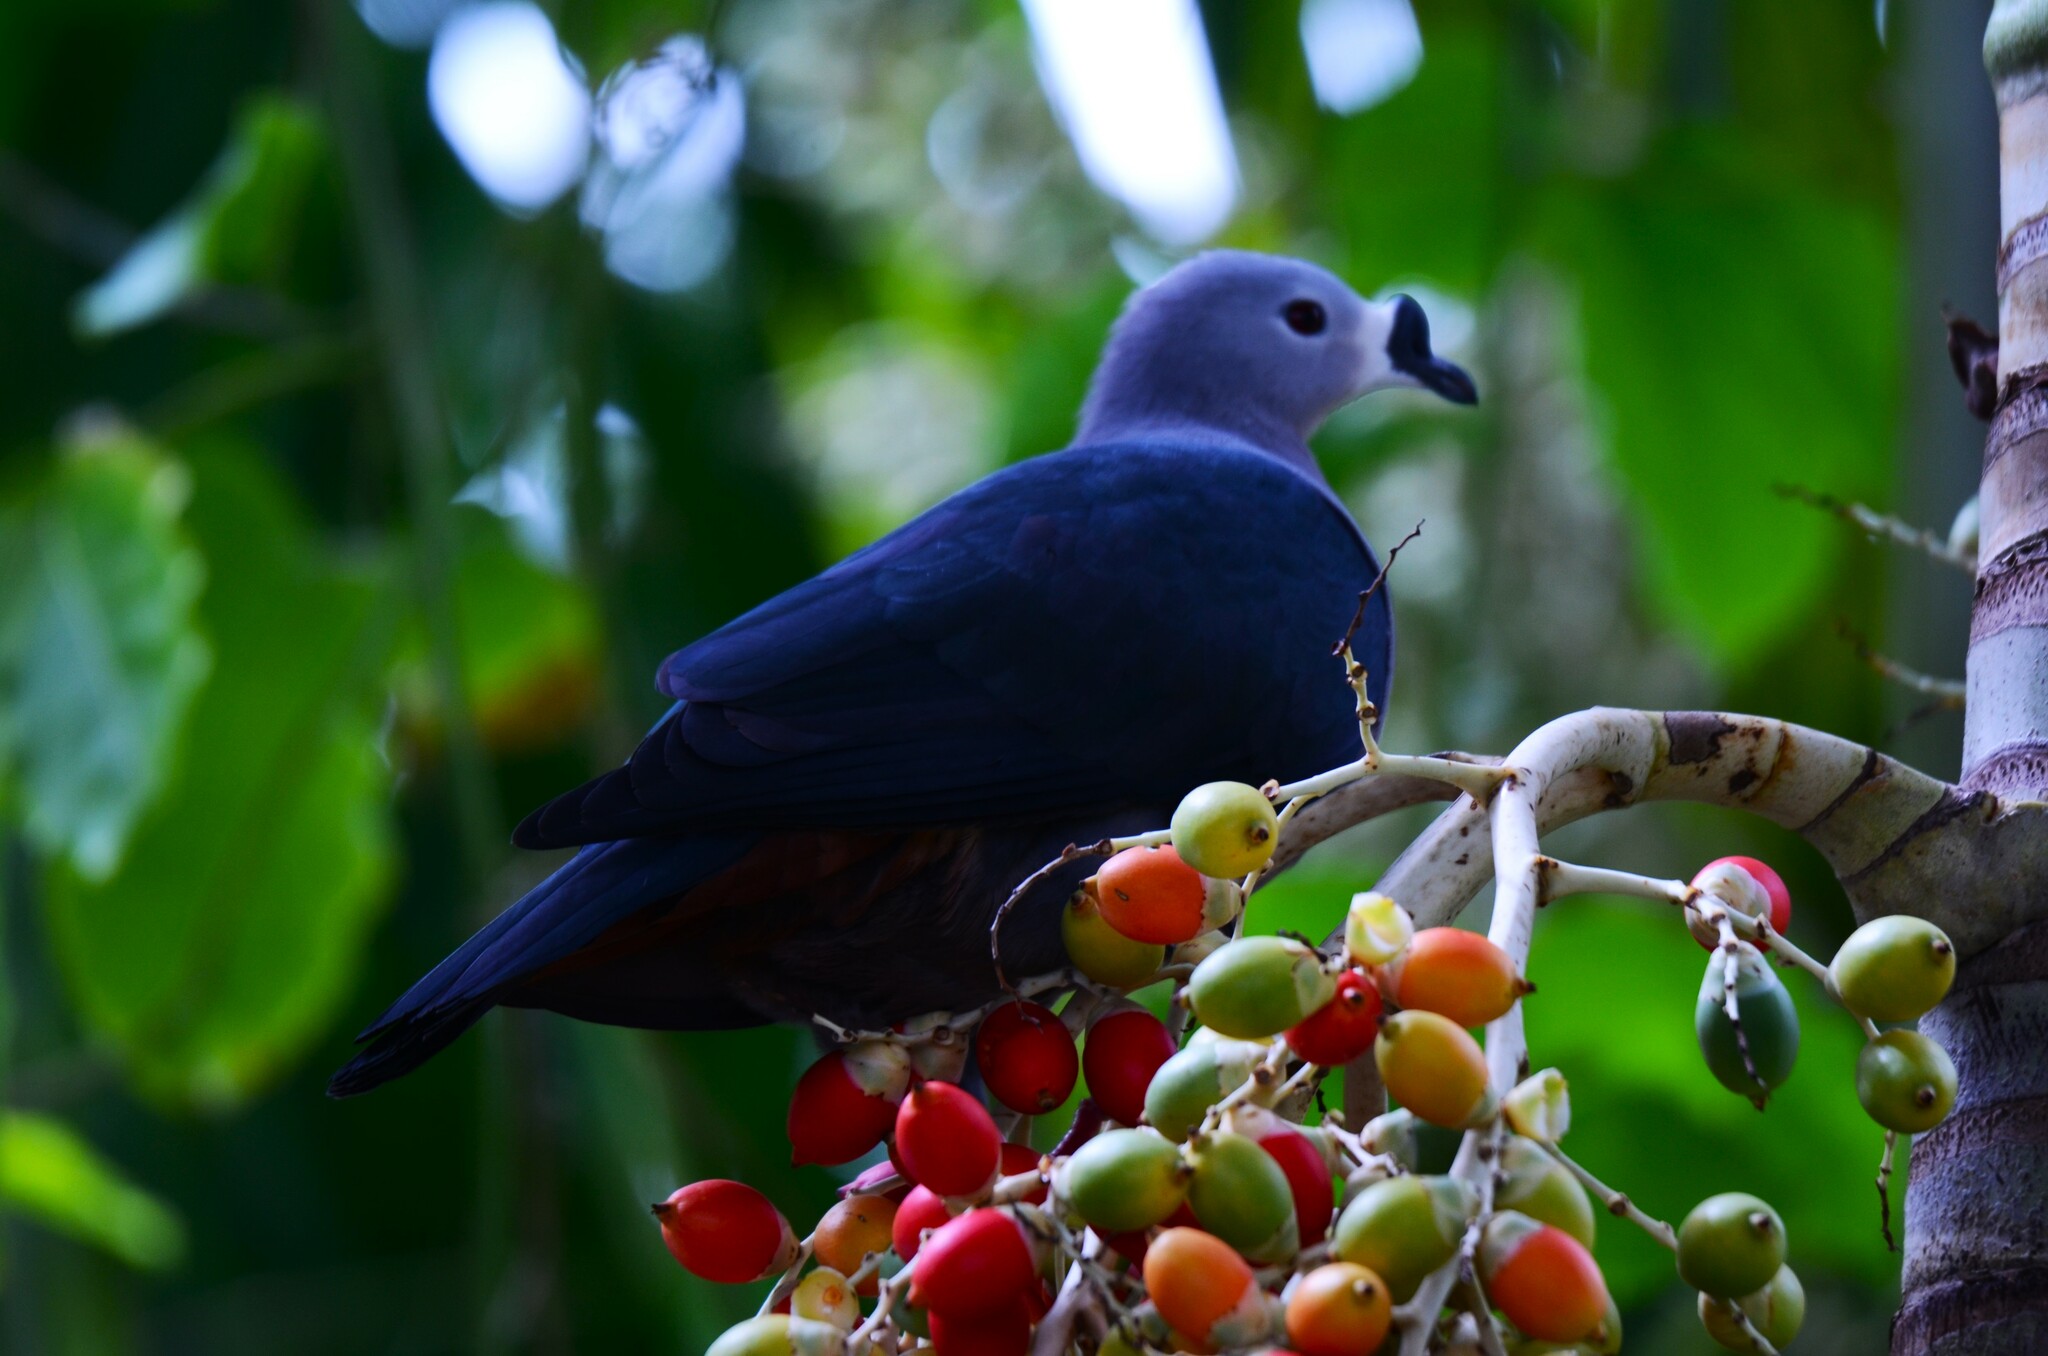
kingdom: Animalia
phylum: Chordata
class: Aves
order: Columbiformes
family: Columbidae
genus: Ducula
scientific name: Ducula pacifica
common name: Pacific imperial-pigeon
